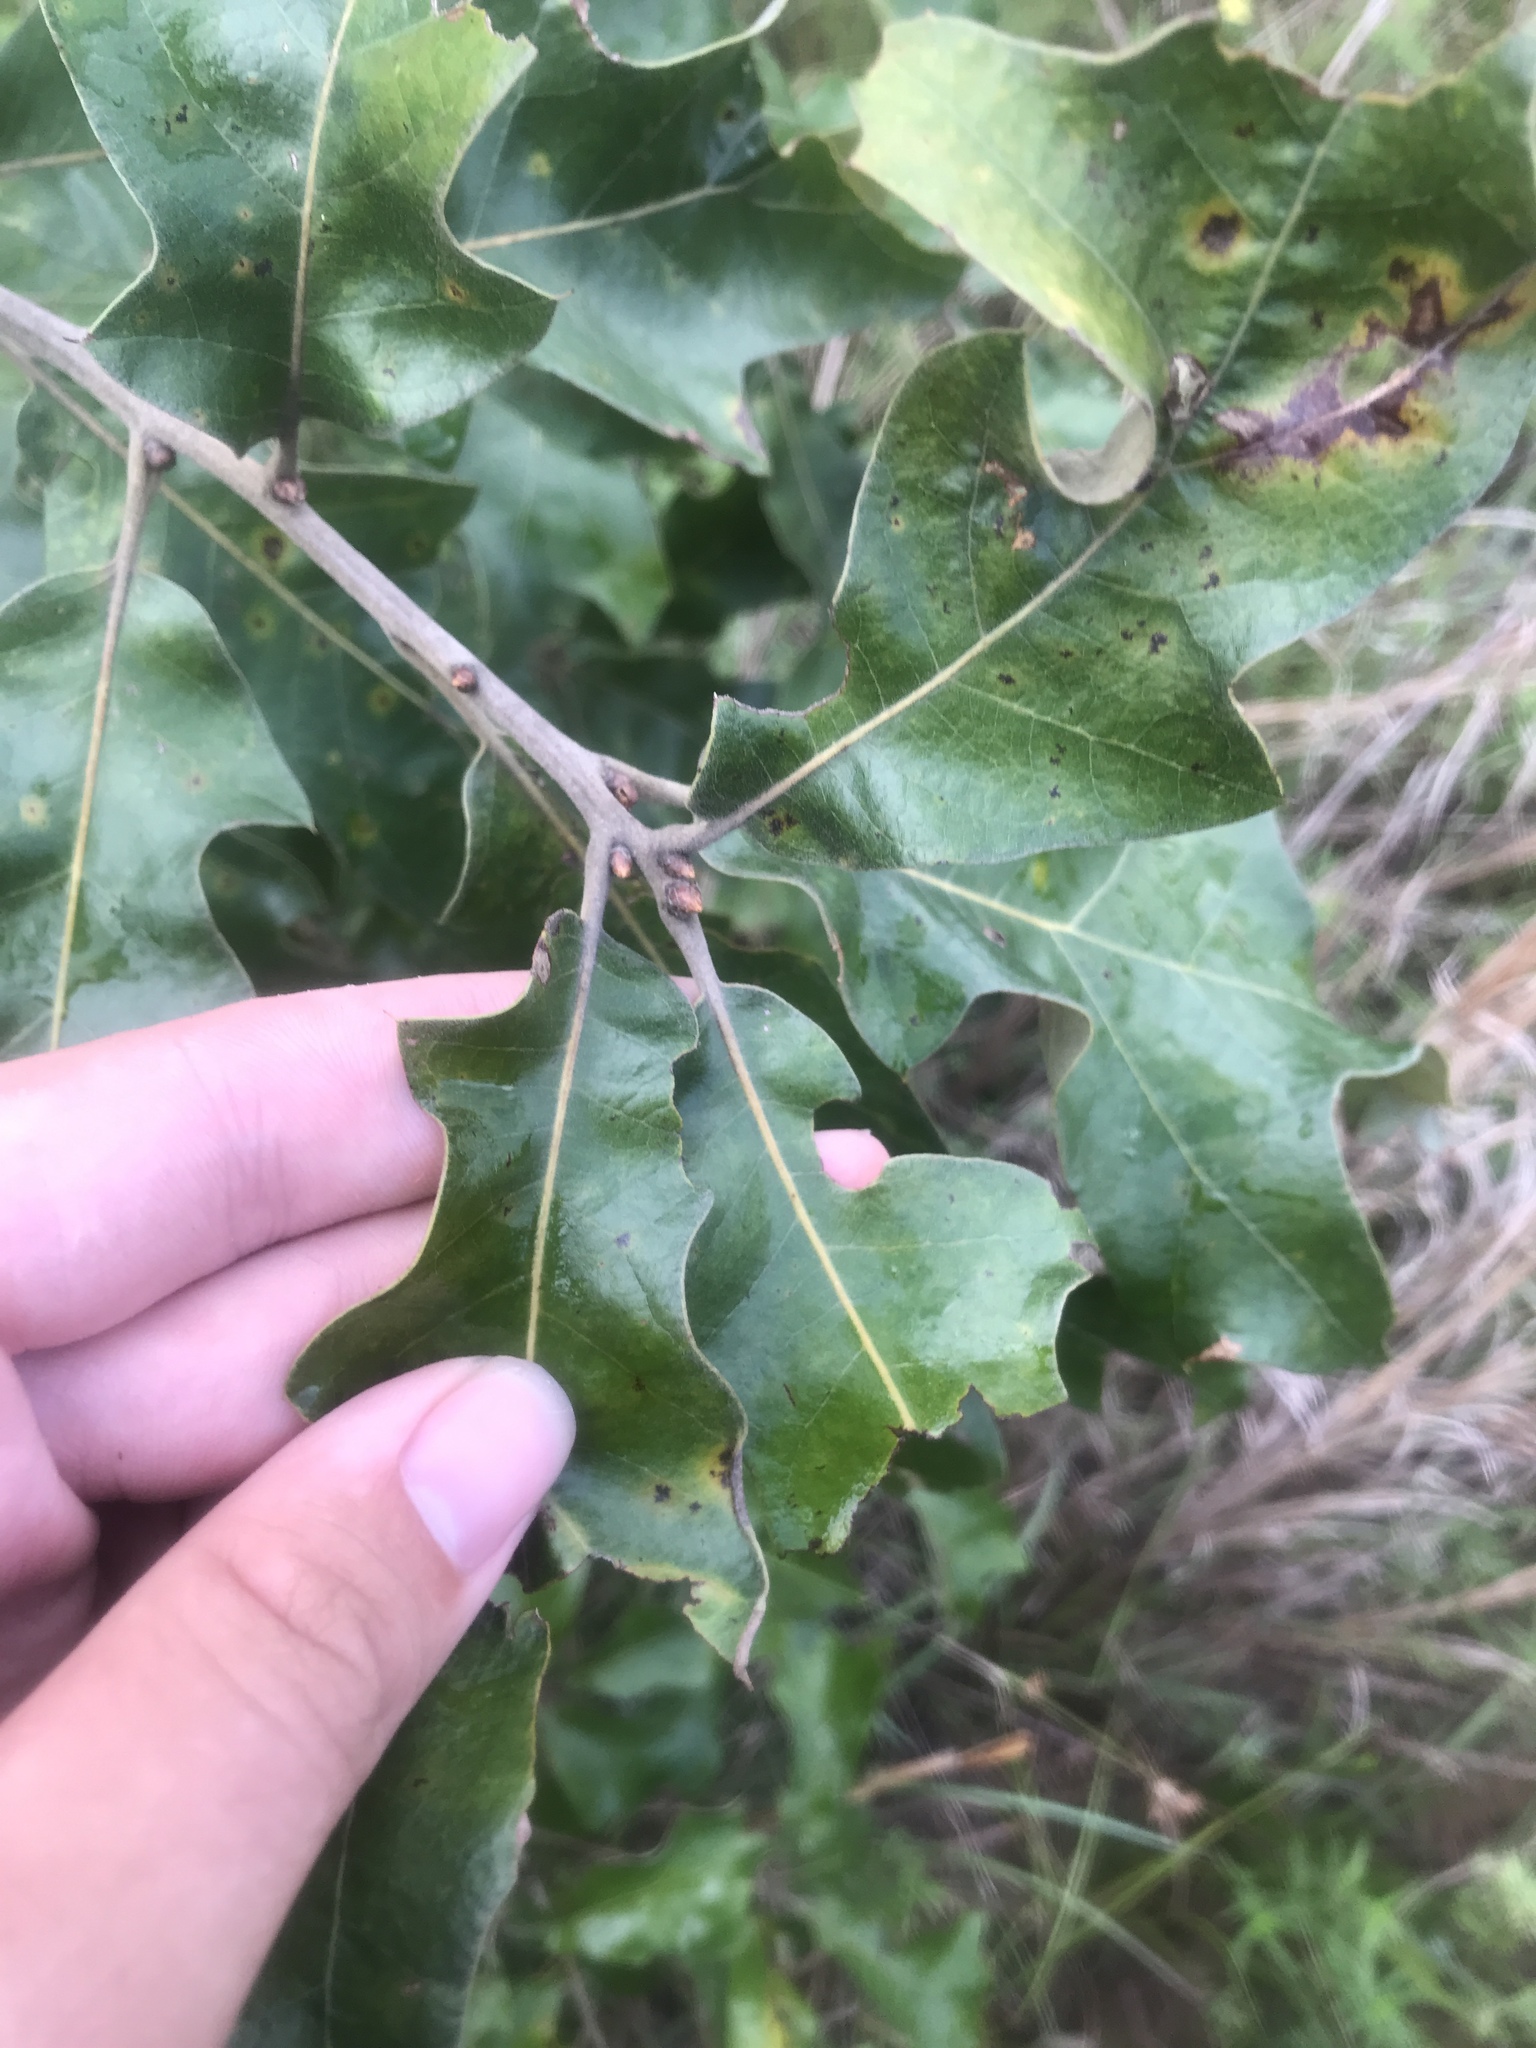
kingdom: Plantae
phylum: Tracheophyta
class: Magnoliopsida
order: Fagales
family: Fagaceae
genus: Quercus
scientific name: Quercus marilandica
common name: Blackjack oak
